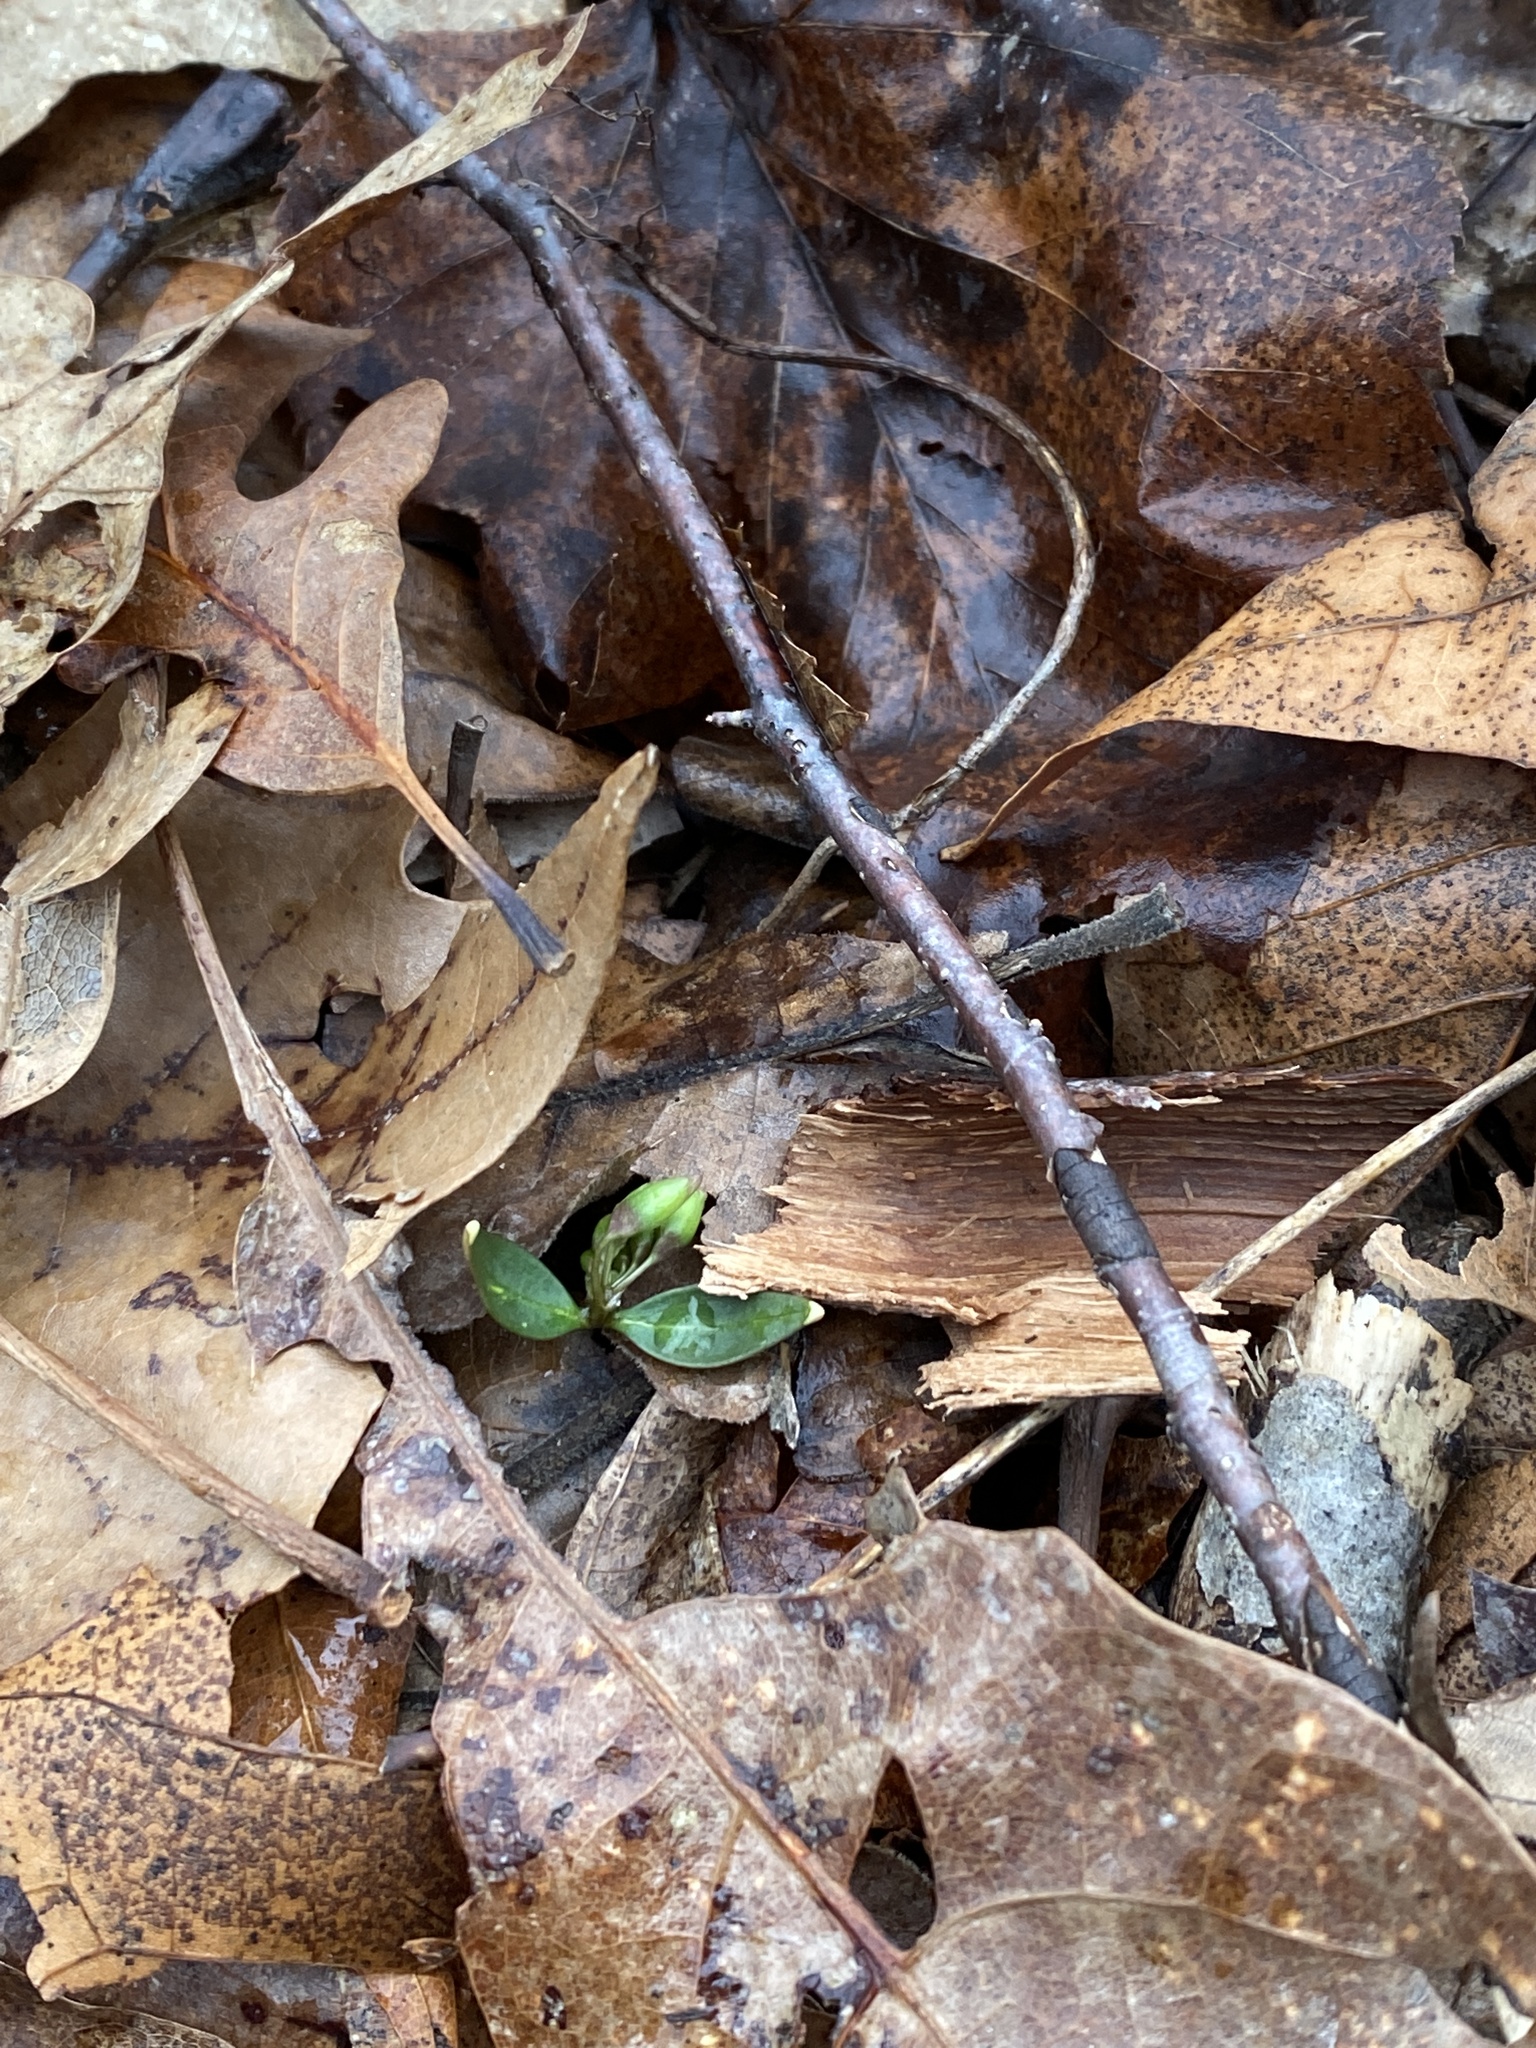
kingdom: Plantae
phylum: Tracheophyta
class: Magnoliopsida
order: Caryophyllales
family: Montiaceae
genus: Claytonia
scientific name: Claytonia caroliniana
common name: Carolina spring beauty
